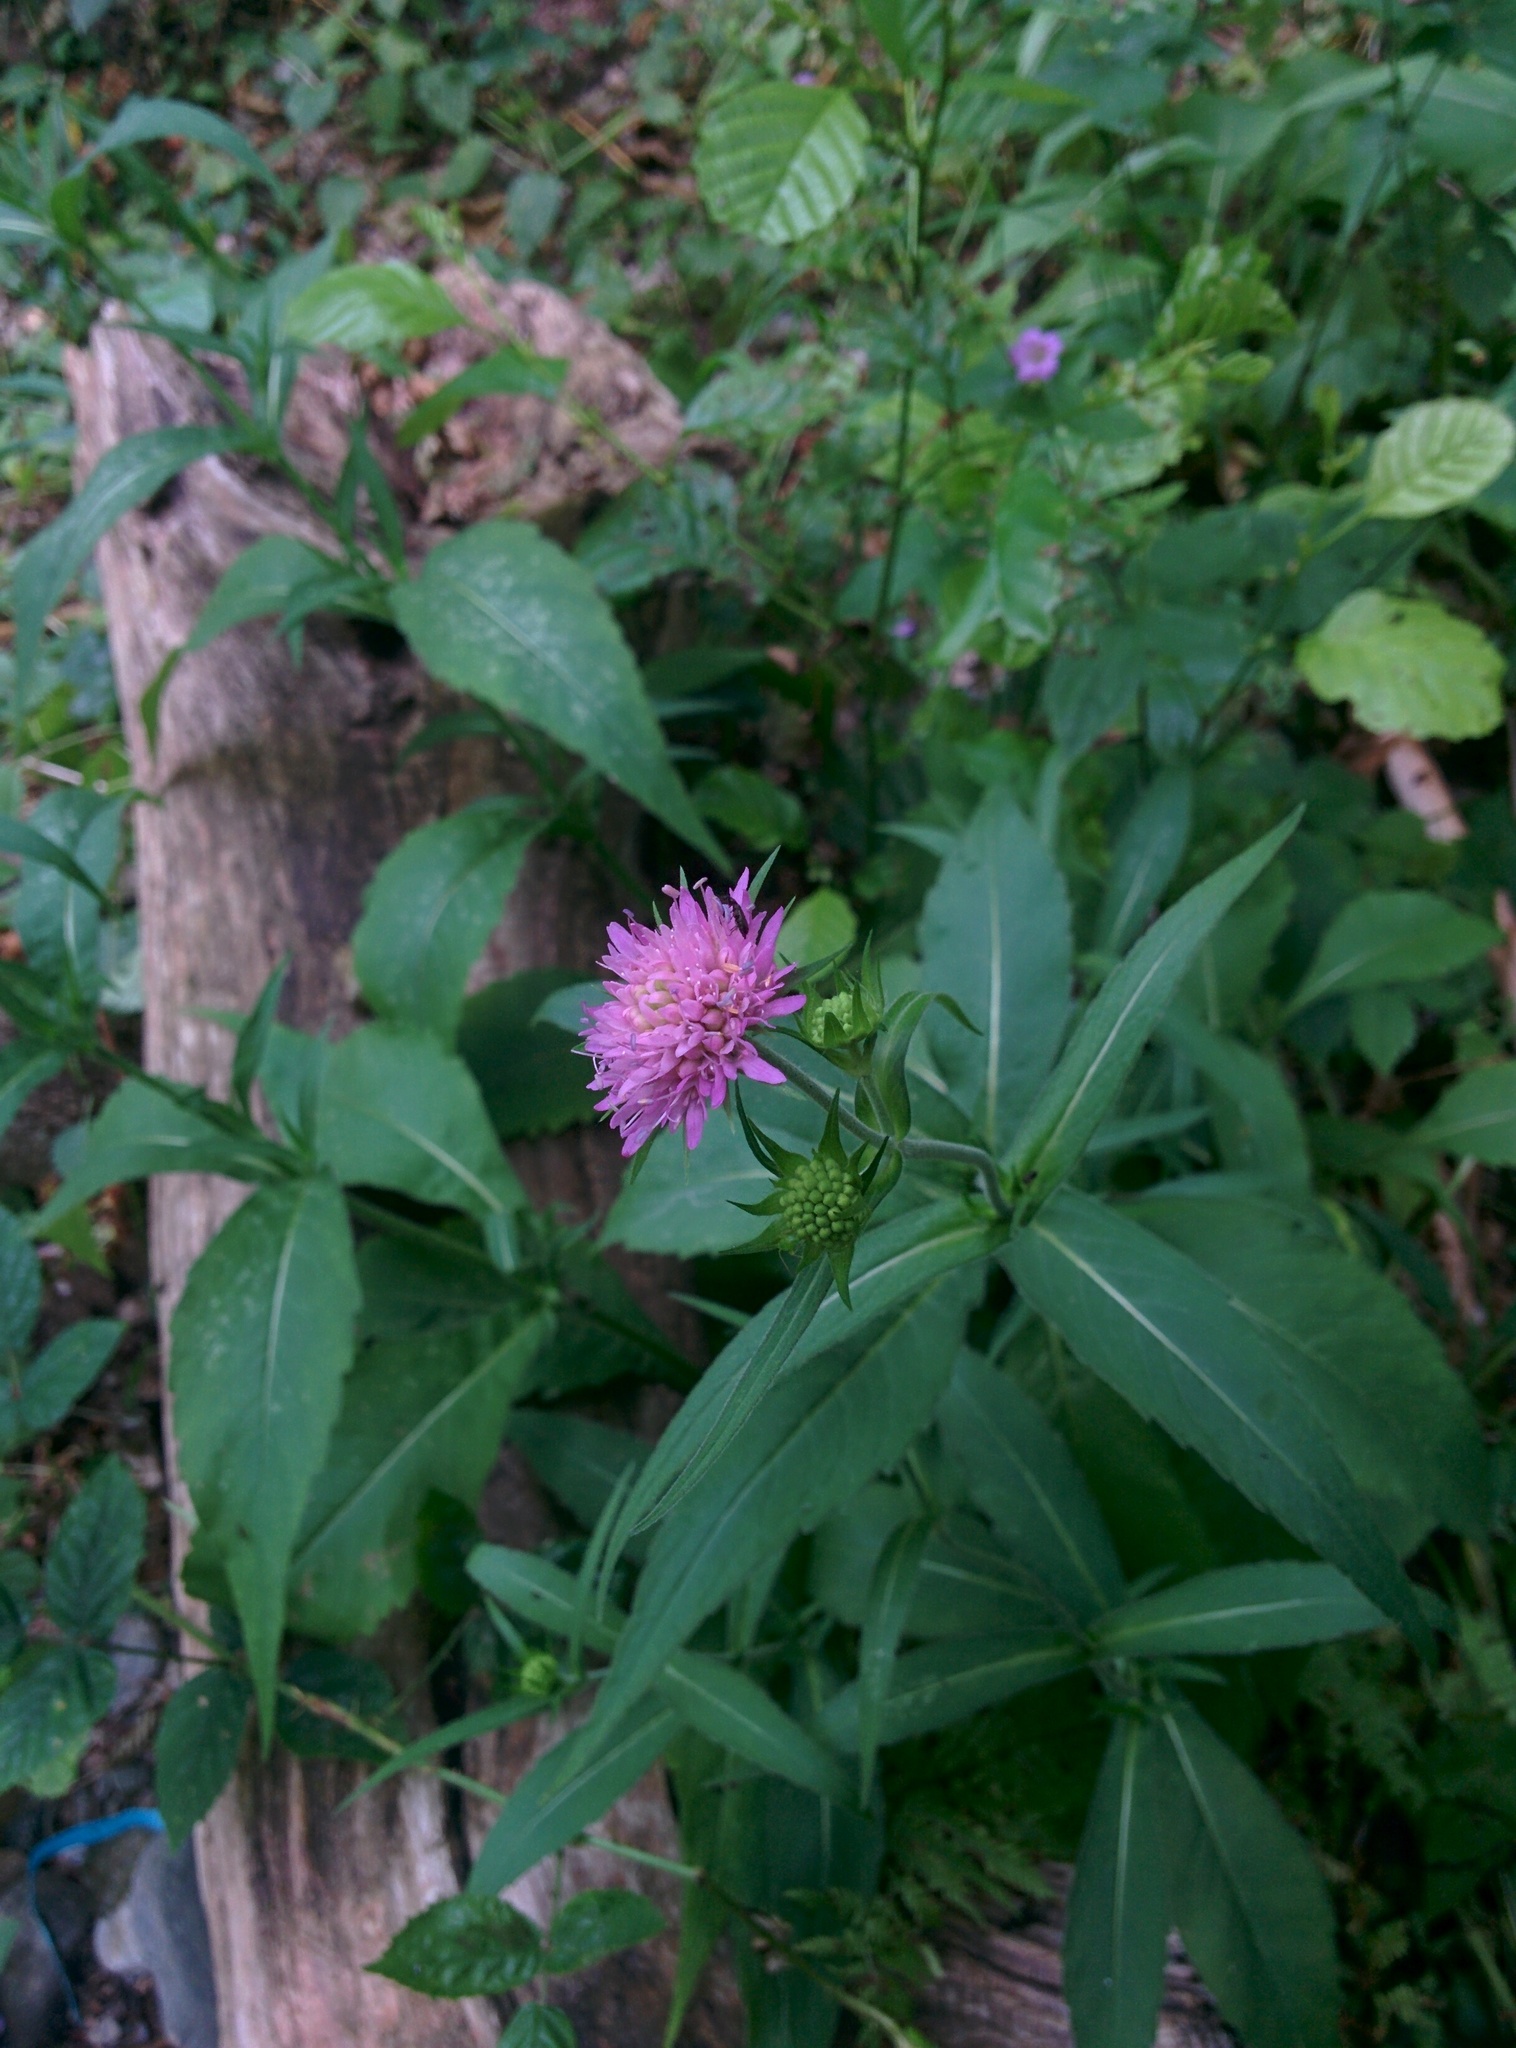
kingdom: Plantae
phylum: Tracheophyta
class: Magnoliopsida
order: Dipsacales
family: Caprifoliaceae
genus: Knautia
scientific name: Knautia dipsacifolia
